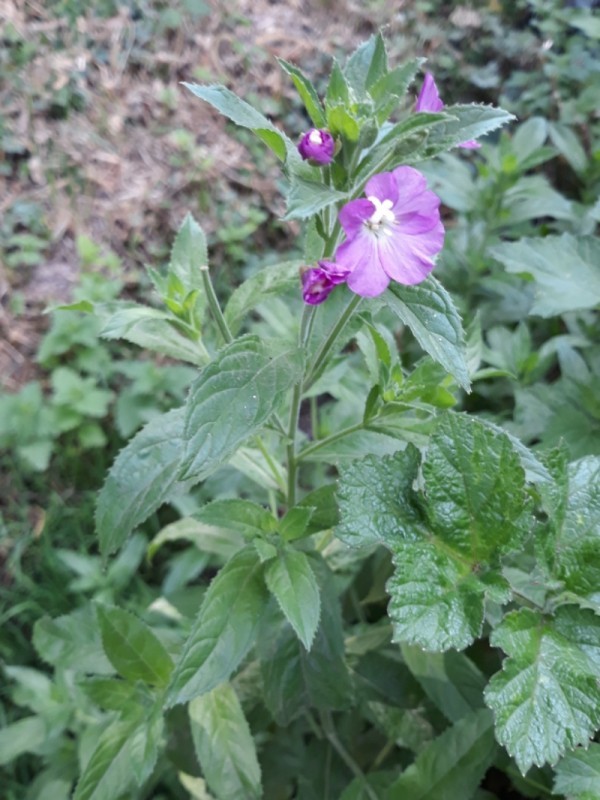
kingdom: Plantae
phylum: Tracheophyta
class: Magnoliopsida
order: Myrtales
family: Onagraceae
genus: Epilobium
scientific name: Epilobium hirsutum
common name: Great willowherb
